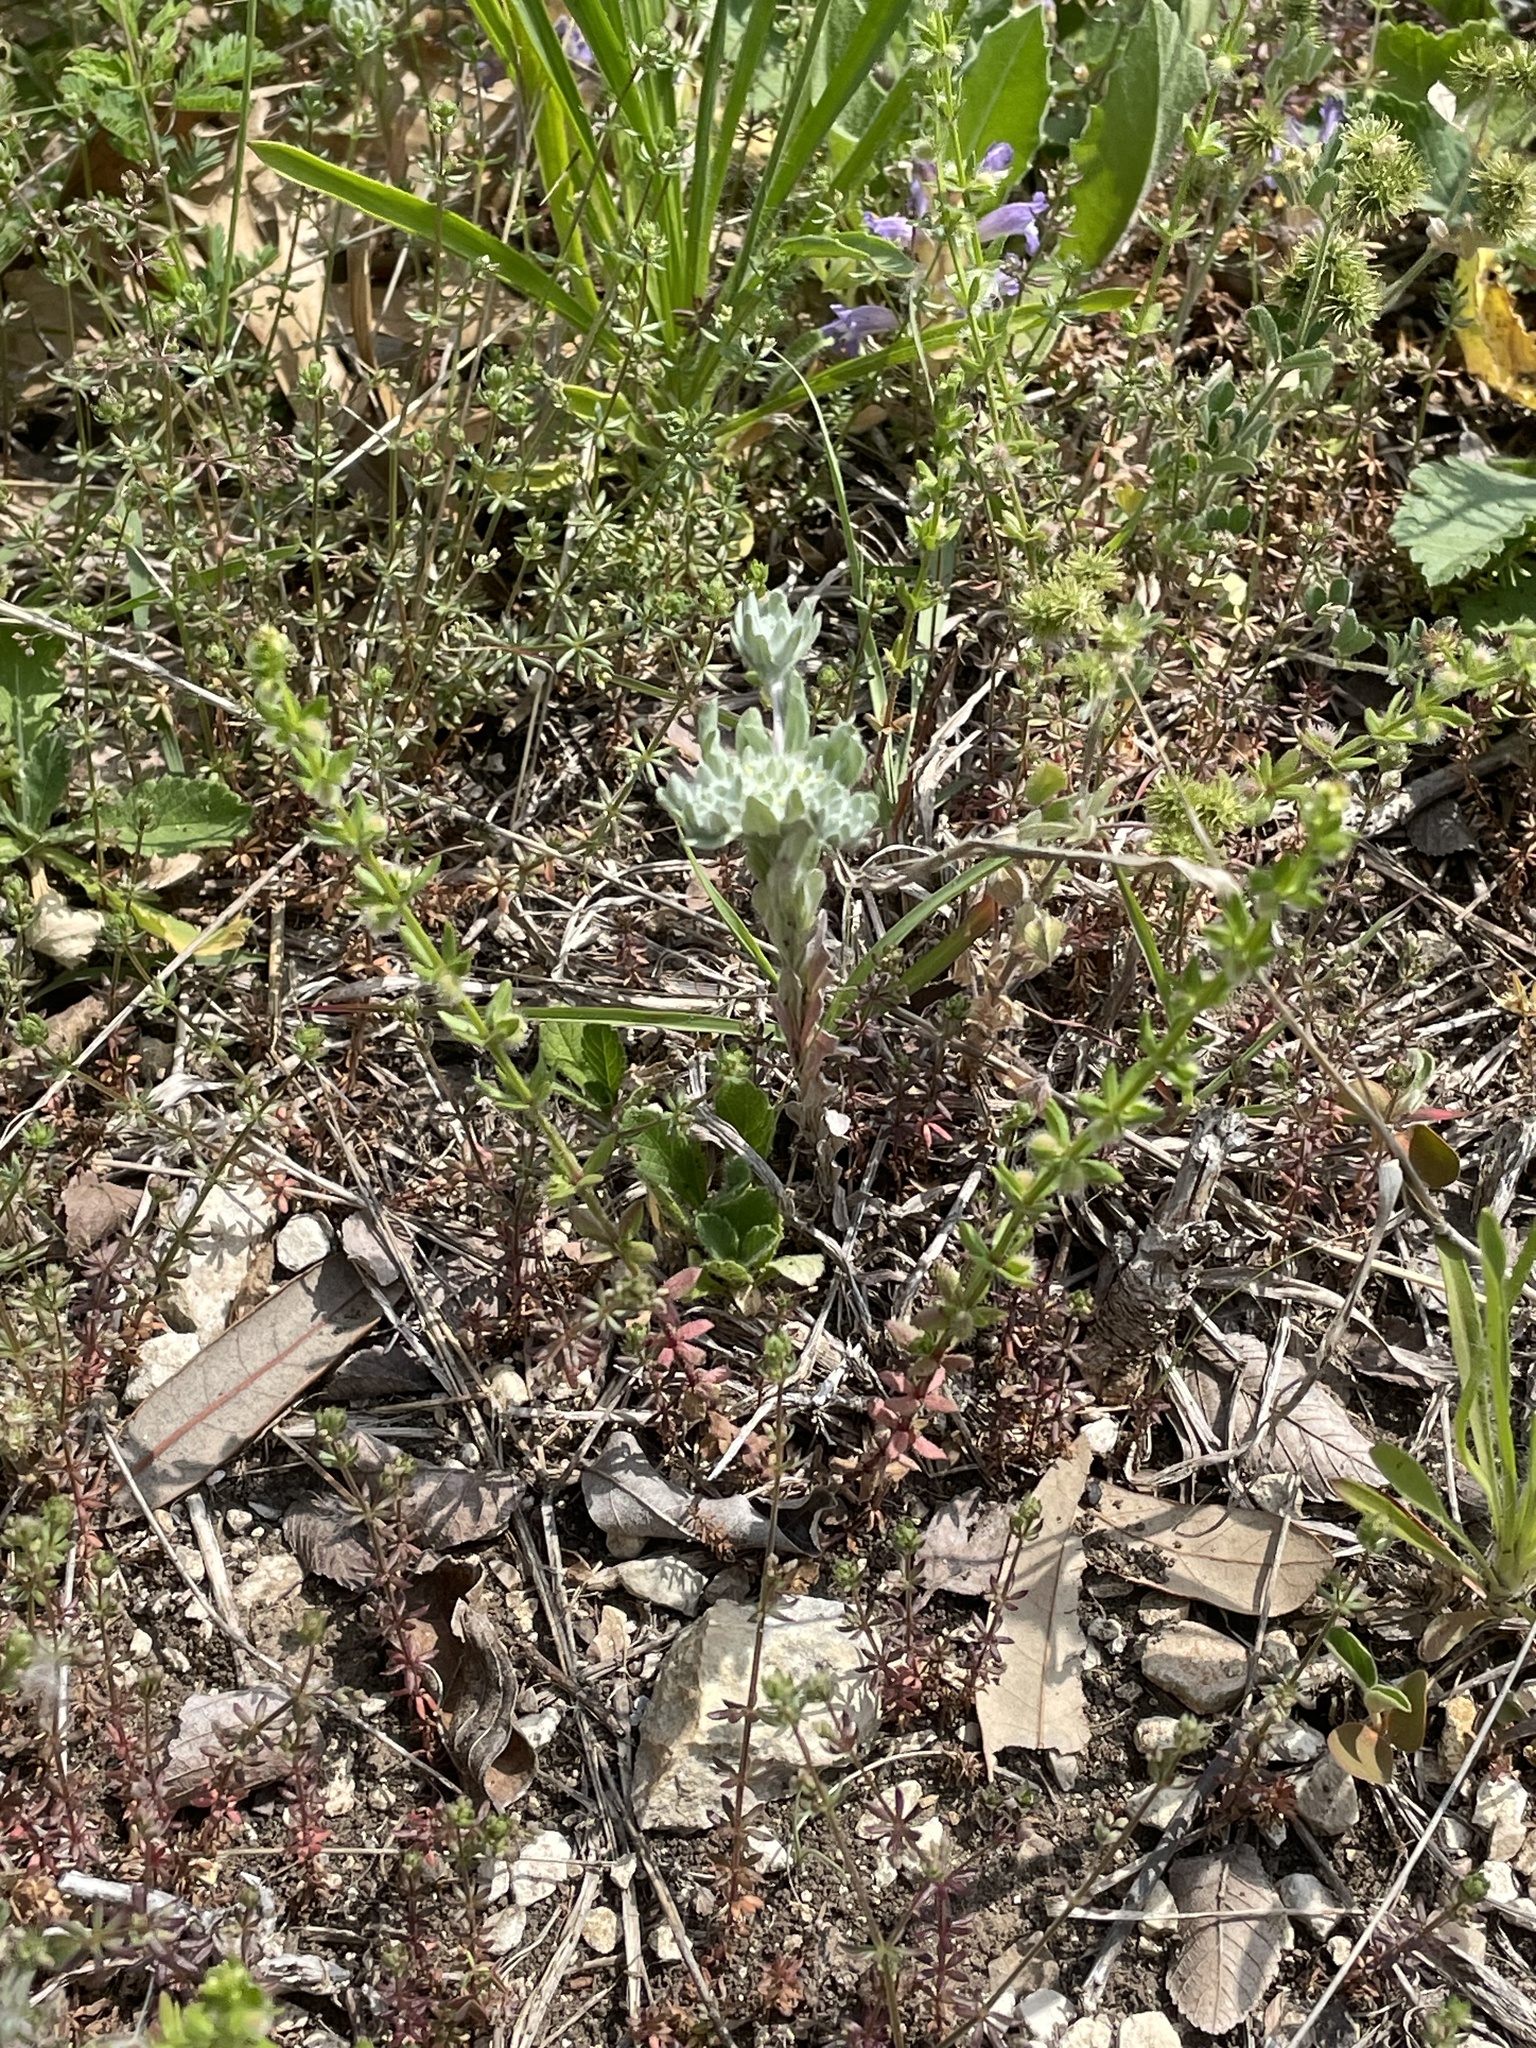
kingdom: Plantae
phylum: Tracheophyta
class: Magnoliopsida
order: Gentianales
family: Rubiaceae
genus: Galium
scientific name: Galium virgatum
